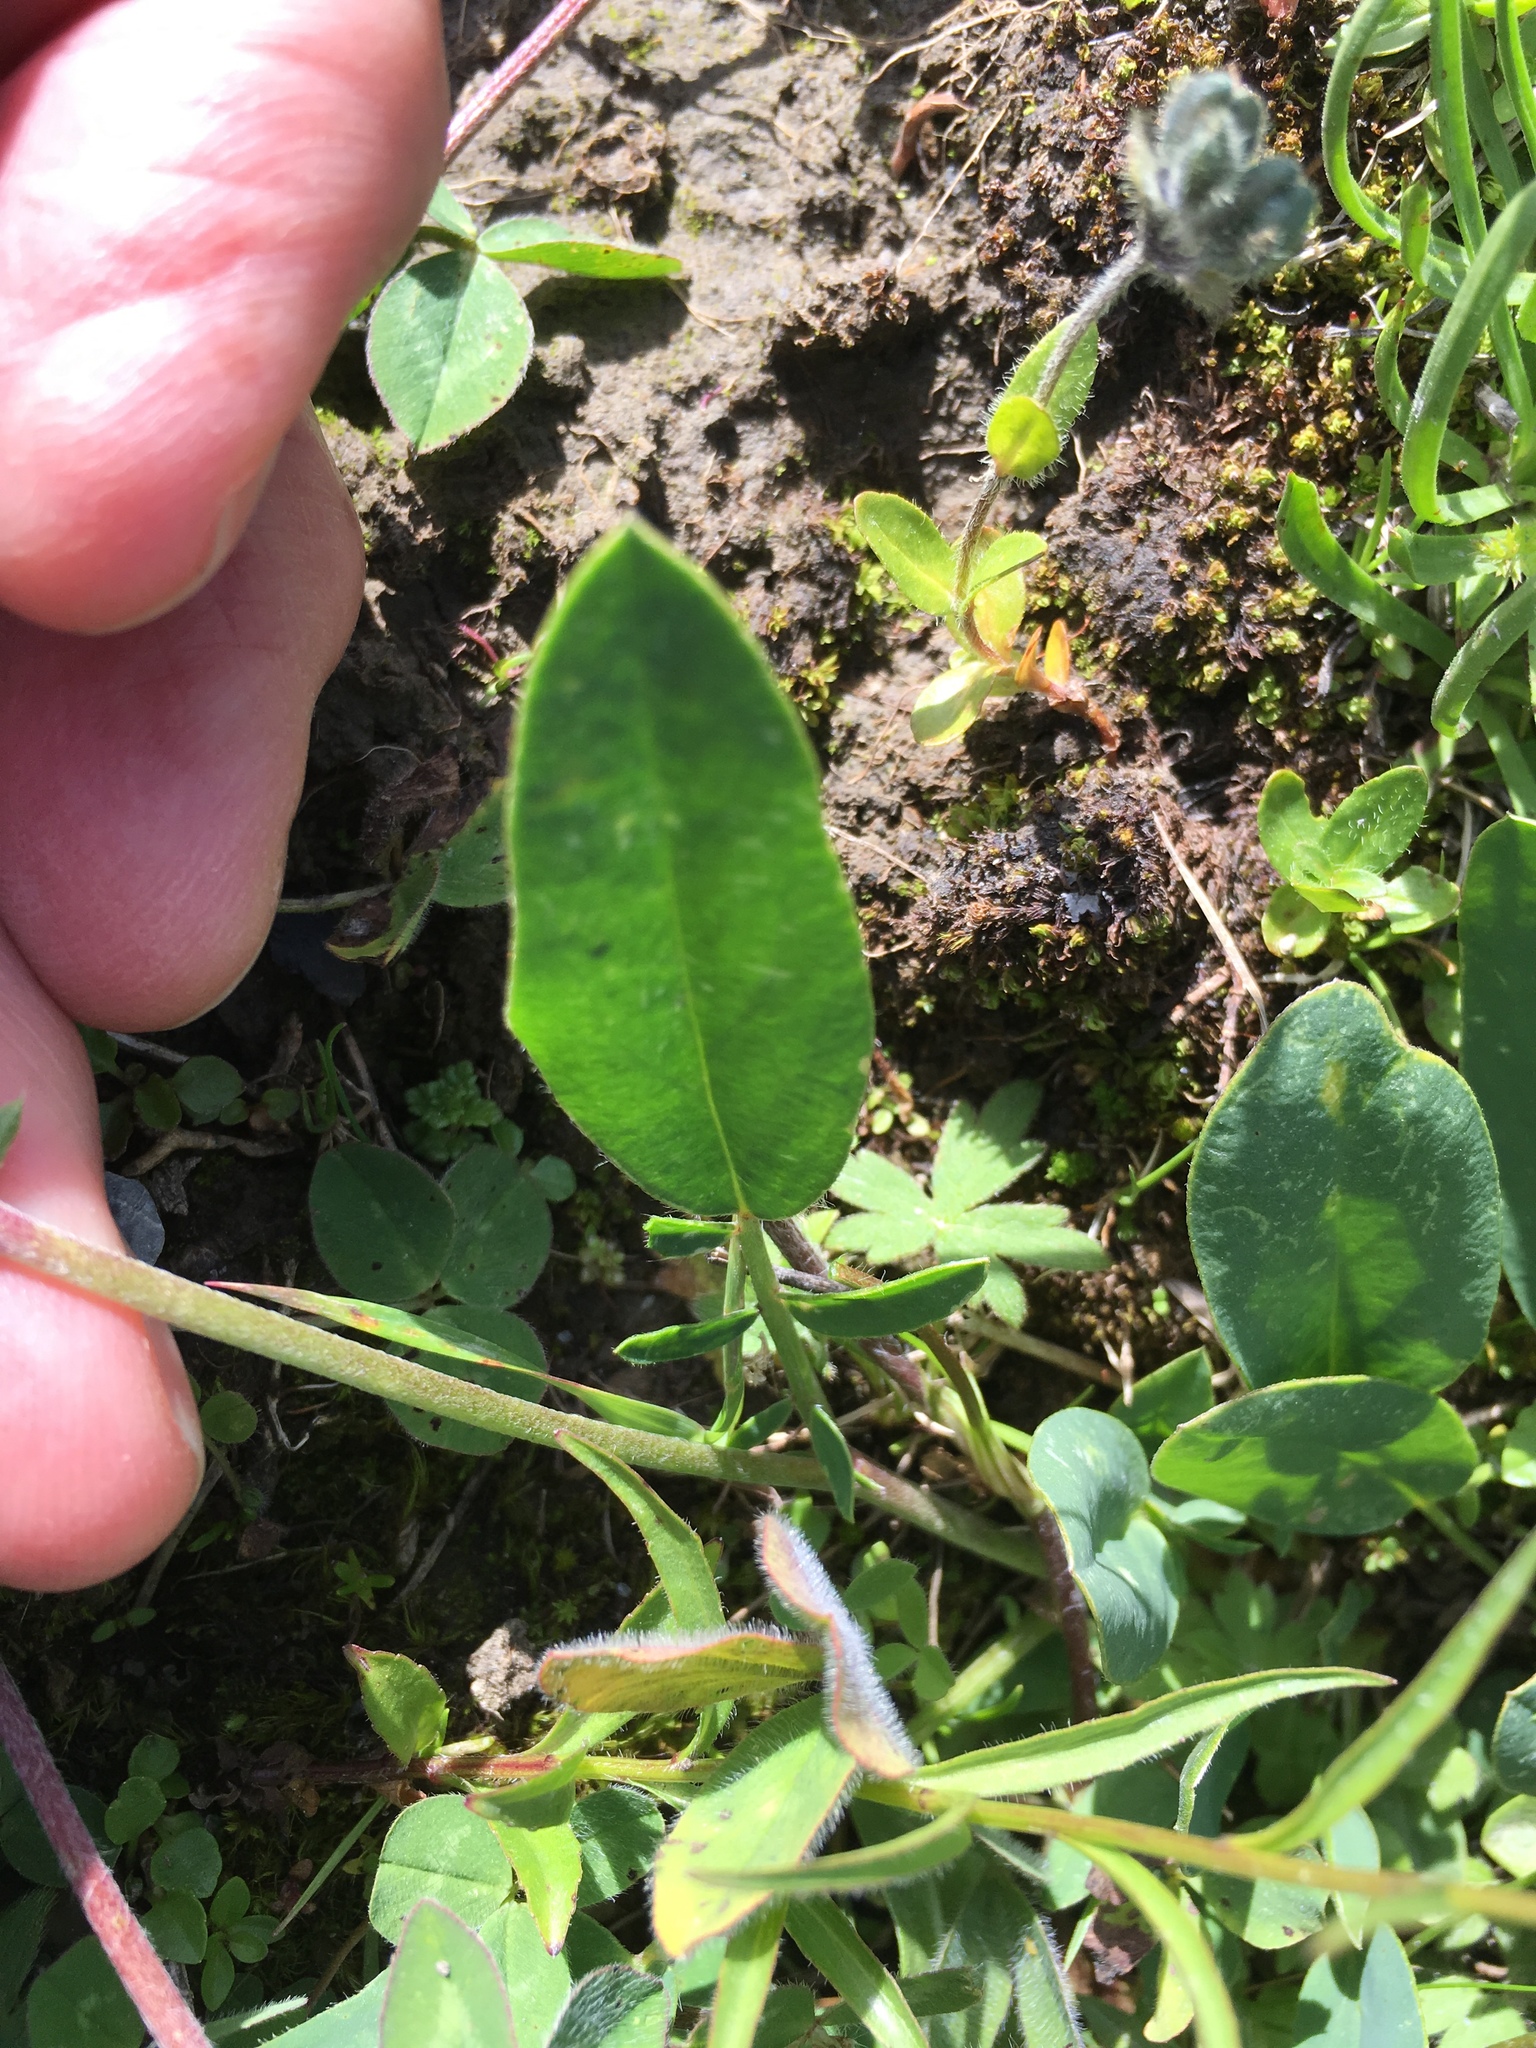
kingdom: Plantae
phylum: Tracheophyta
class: Magnoliopsida
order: Fabales
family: Fabaceae
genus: Anthyllis
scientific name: Anthyllis vulneraria
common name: Kidney vetch
